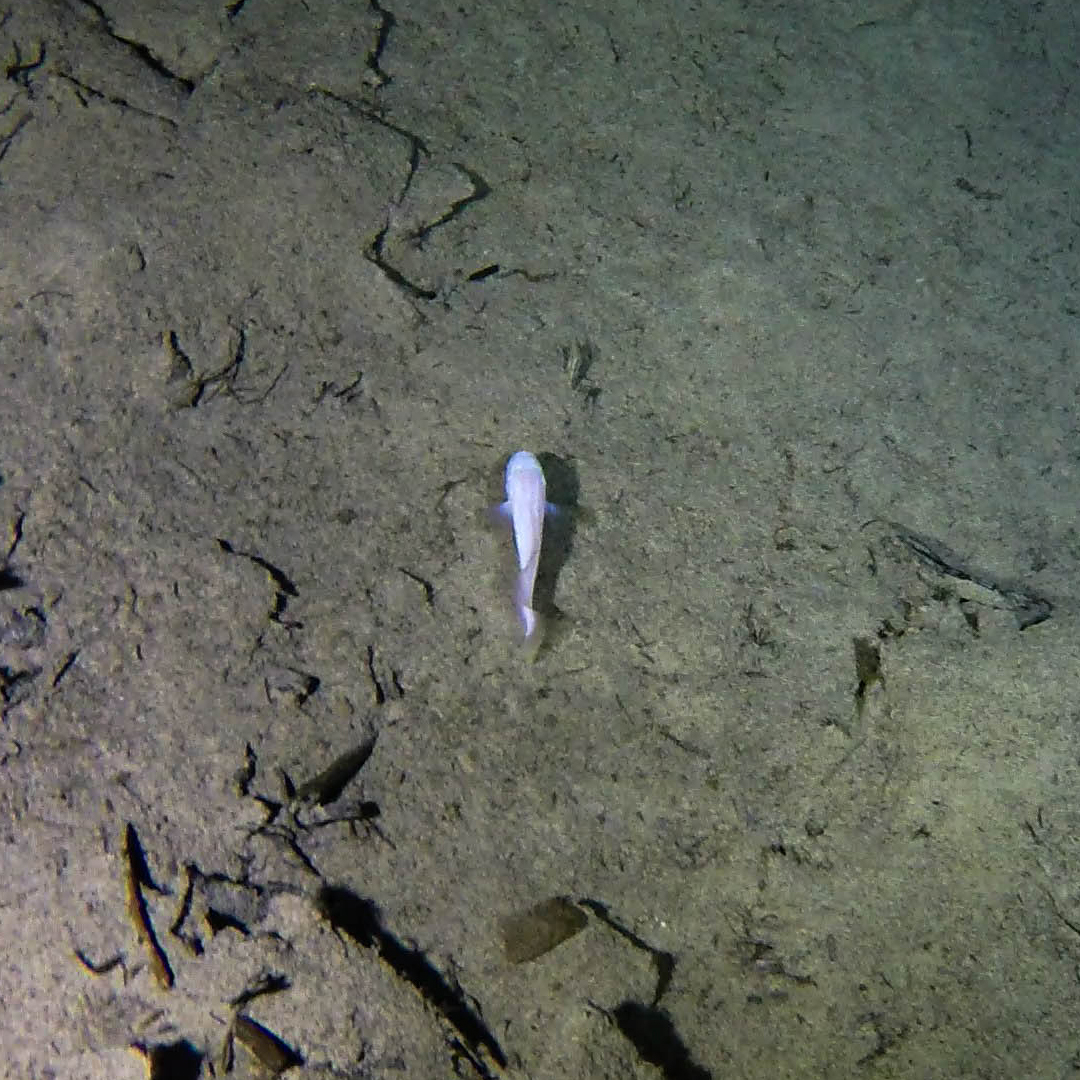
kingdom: Animalia
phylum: Chordata
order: Ophidiiformes
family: Bythitidae
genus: Typhliasina
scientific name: Typhliasina pearsei
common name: Dama ciega blanca
